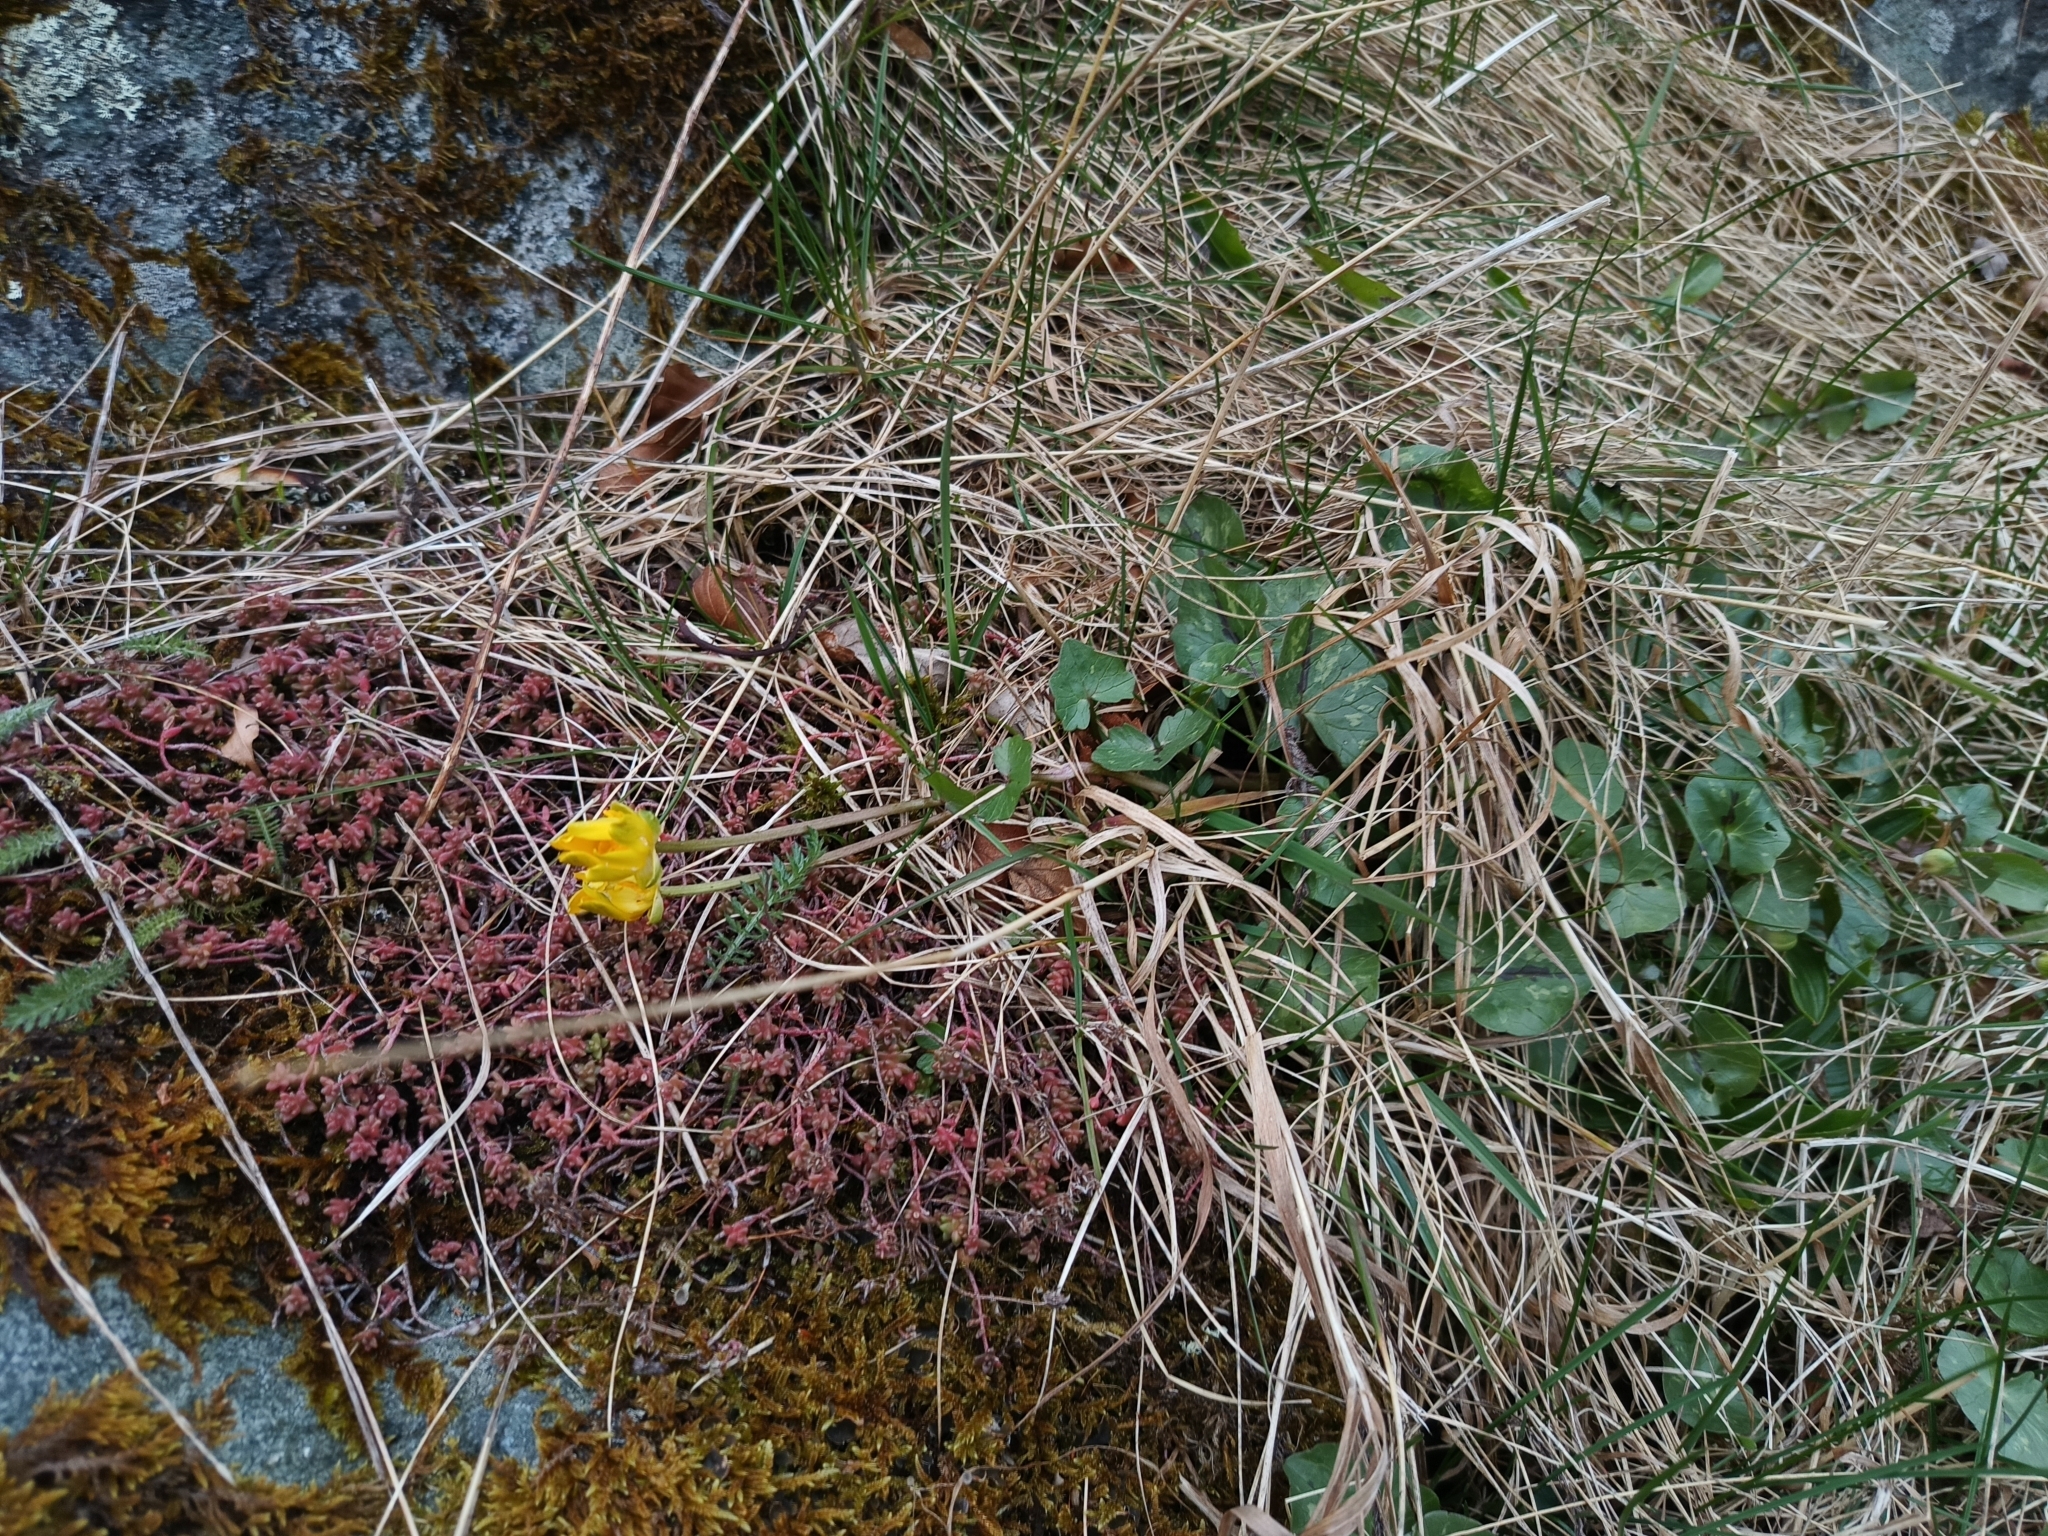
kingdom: Plantae
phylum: Tracheophyta
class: Magnoliopsida
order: Ranunculales
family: Ranunculaceae
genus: Ficaria
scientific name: Ficaria verna
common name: Lesser celandine
